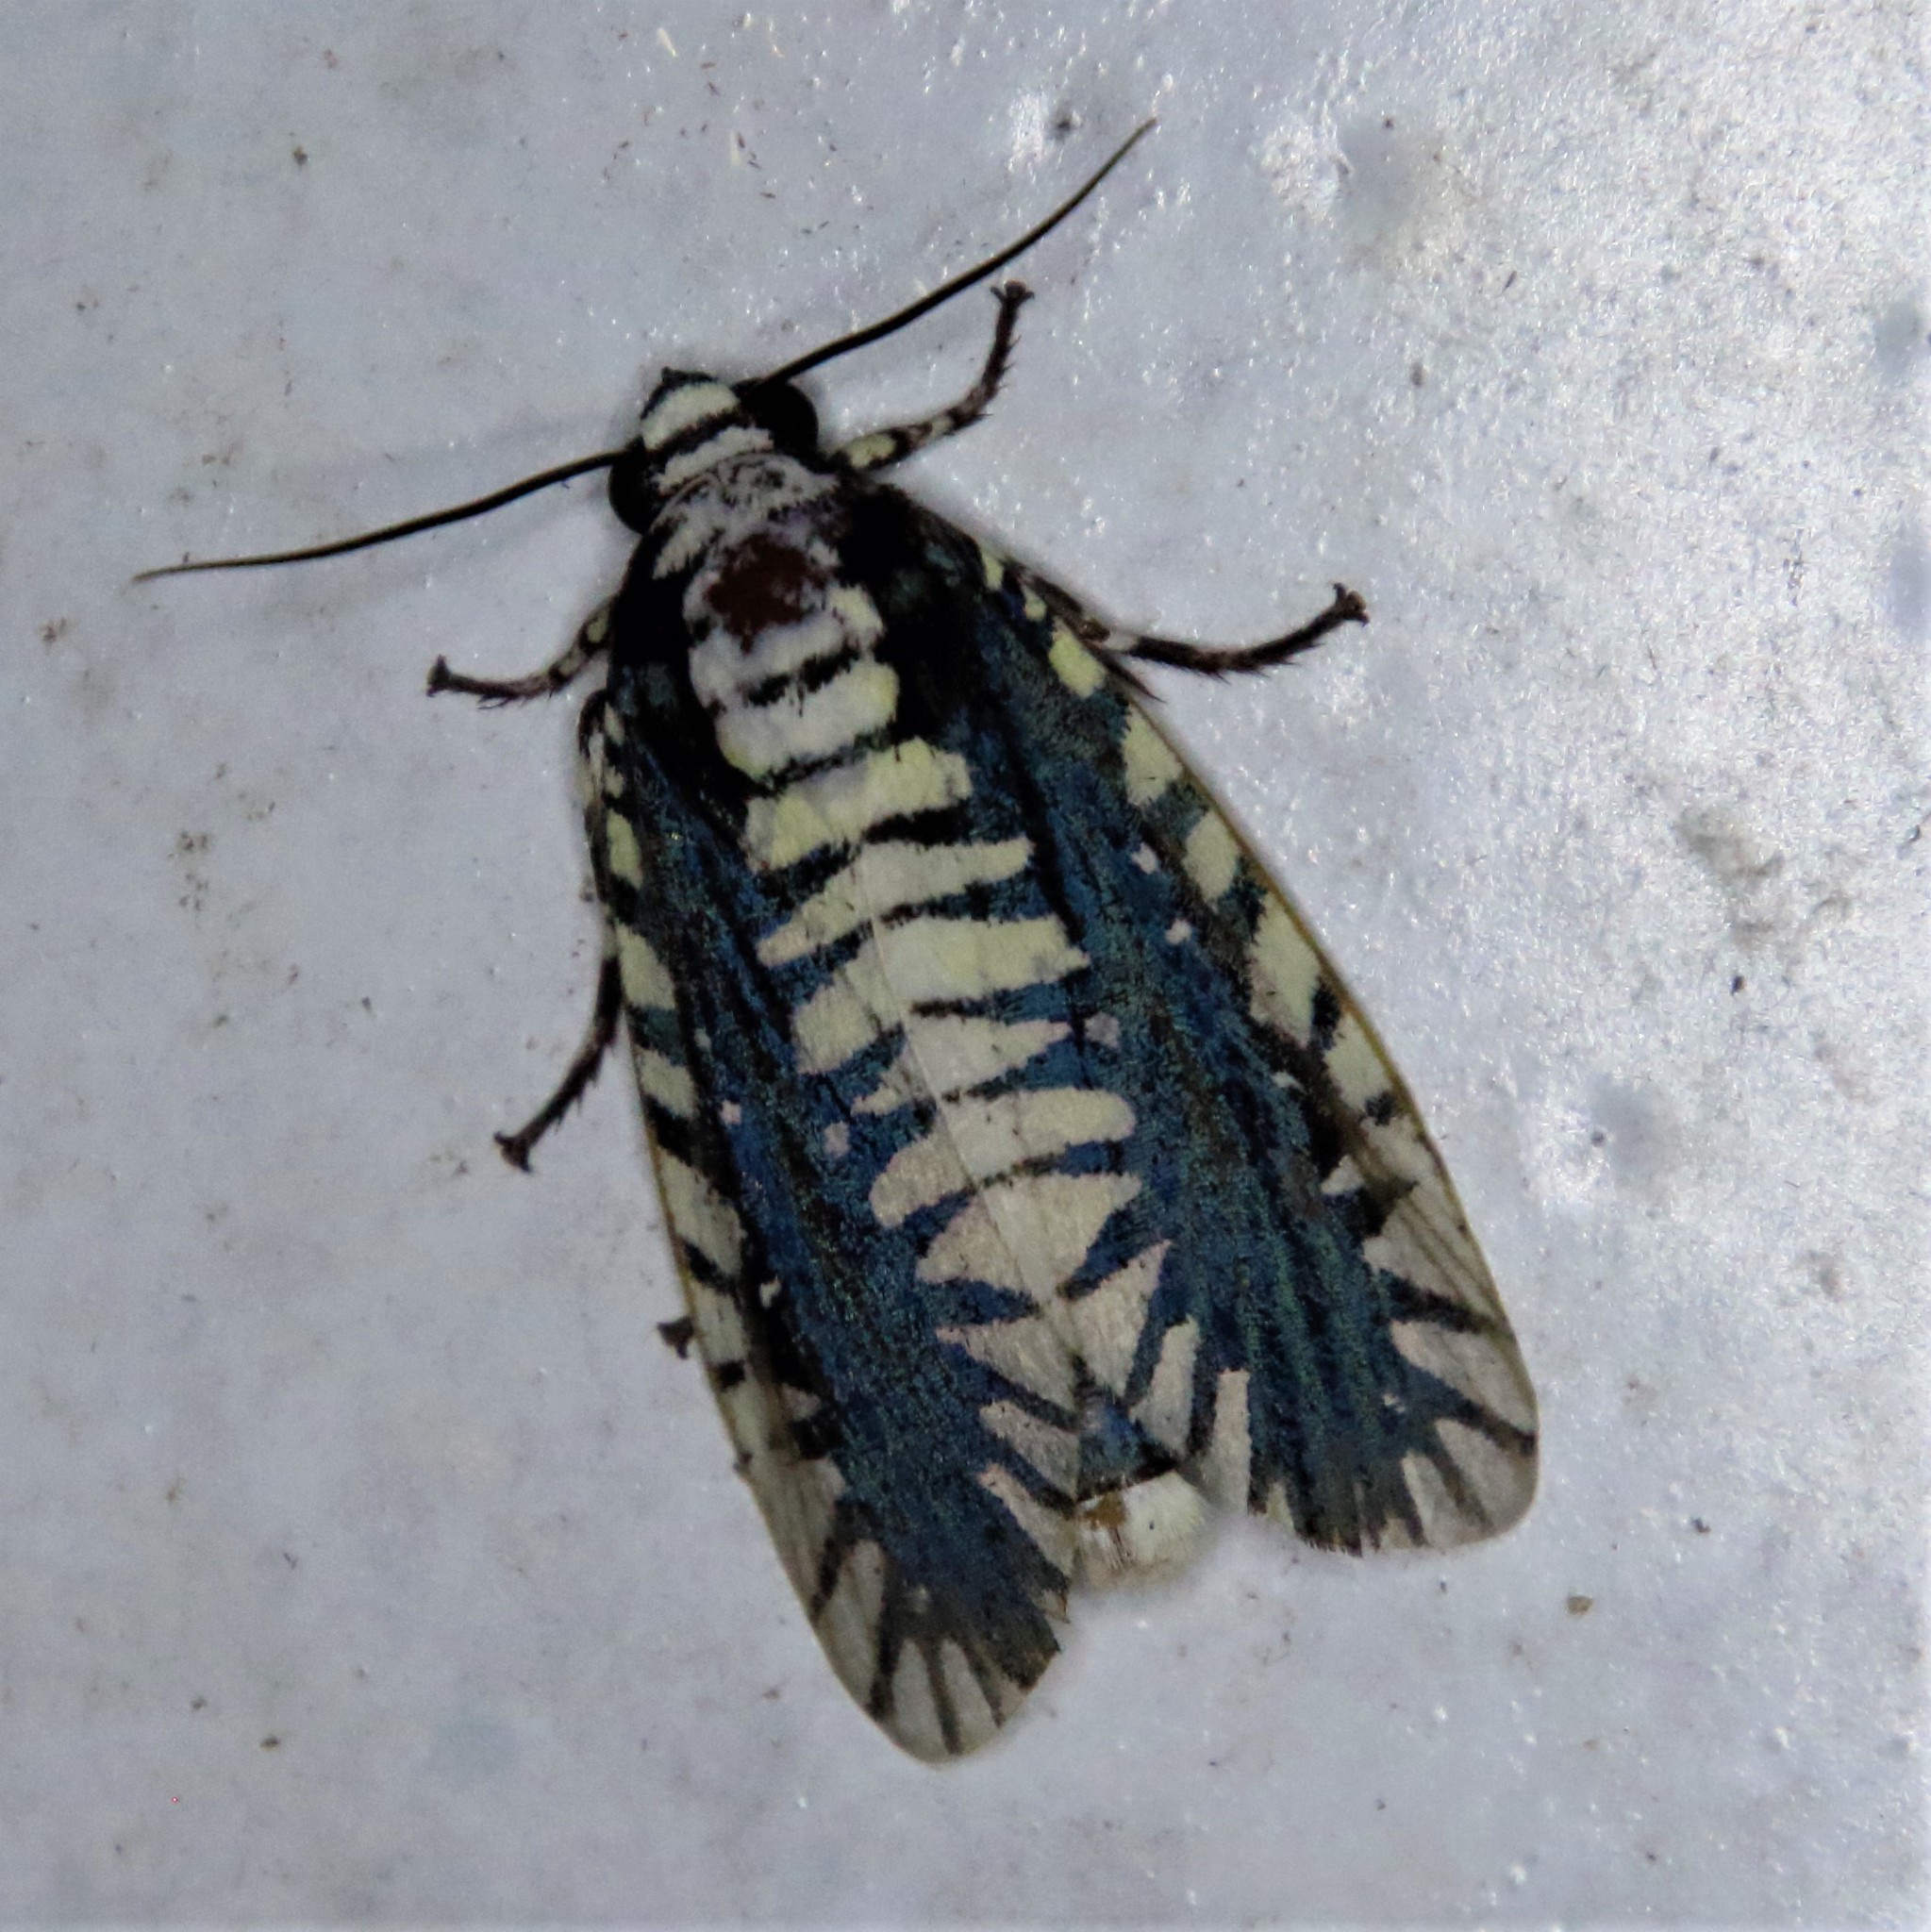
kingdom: Animalia
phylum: Arthropoda
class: Insecta
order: Lepidoptera
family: Noctuidae
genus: Apsarasa
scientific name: Apsarasa radians
